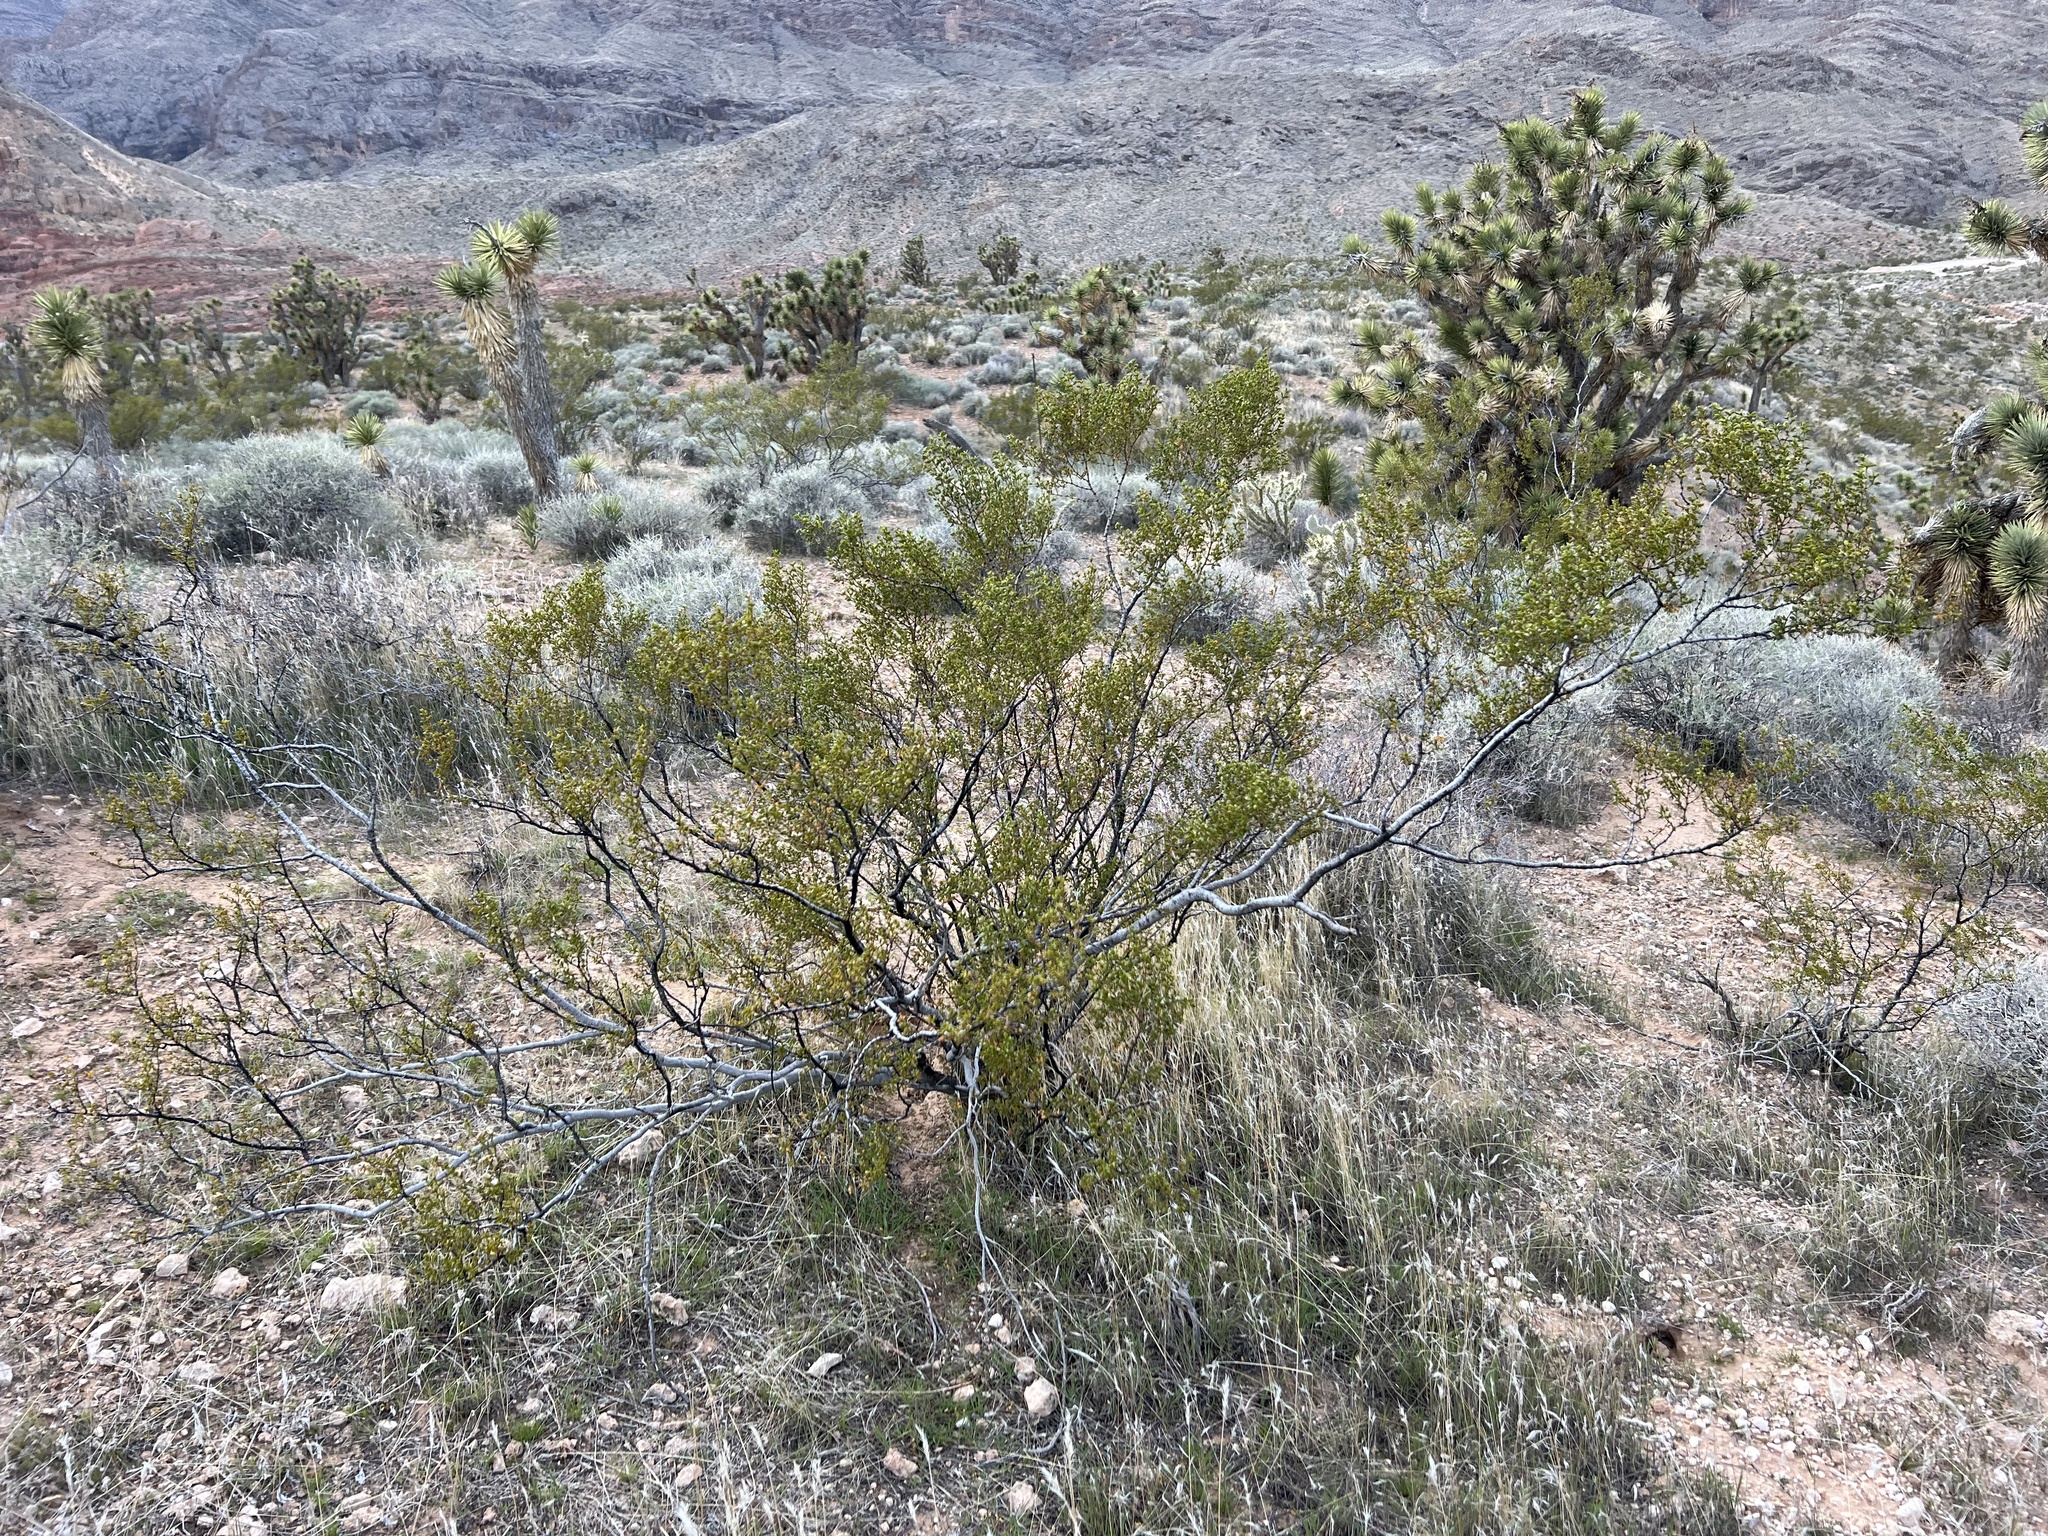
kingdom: Plantae
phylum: Tracheophyta
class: Magnoliopsida
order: Zygophyllales
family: Zygophyllaceae
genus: Larrea
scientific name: Larrea tridentata
